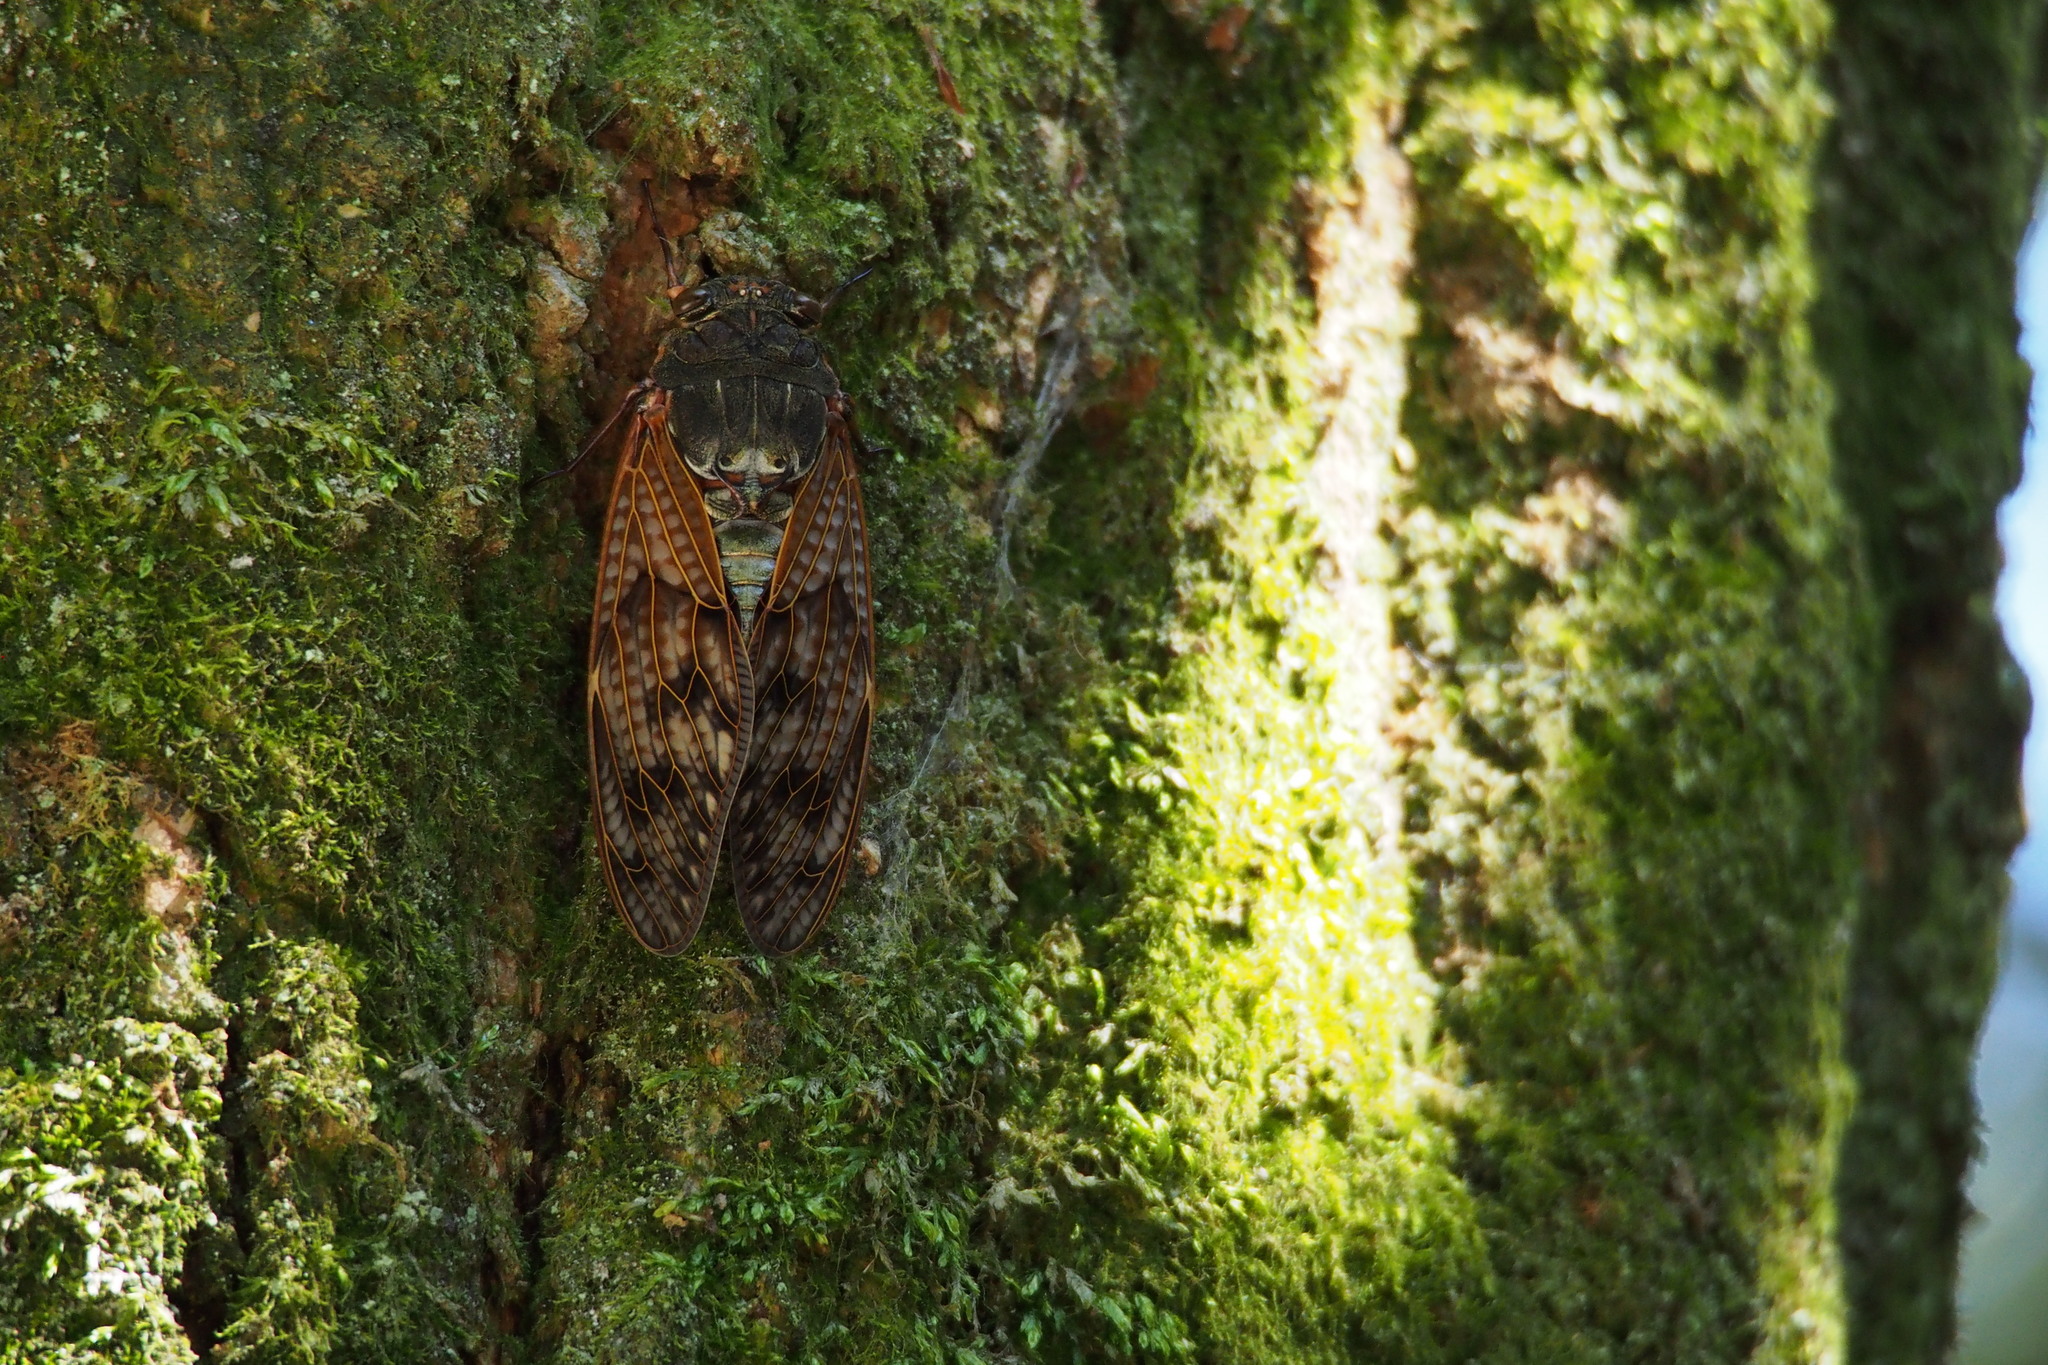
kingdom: Animalia
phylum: Arthropoda
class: Insecta
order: Hemiptera
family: Cicadidae
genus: Graptopsaltria
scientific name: Graptopsaltria nigrofuscata
